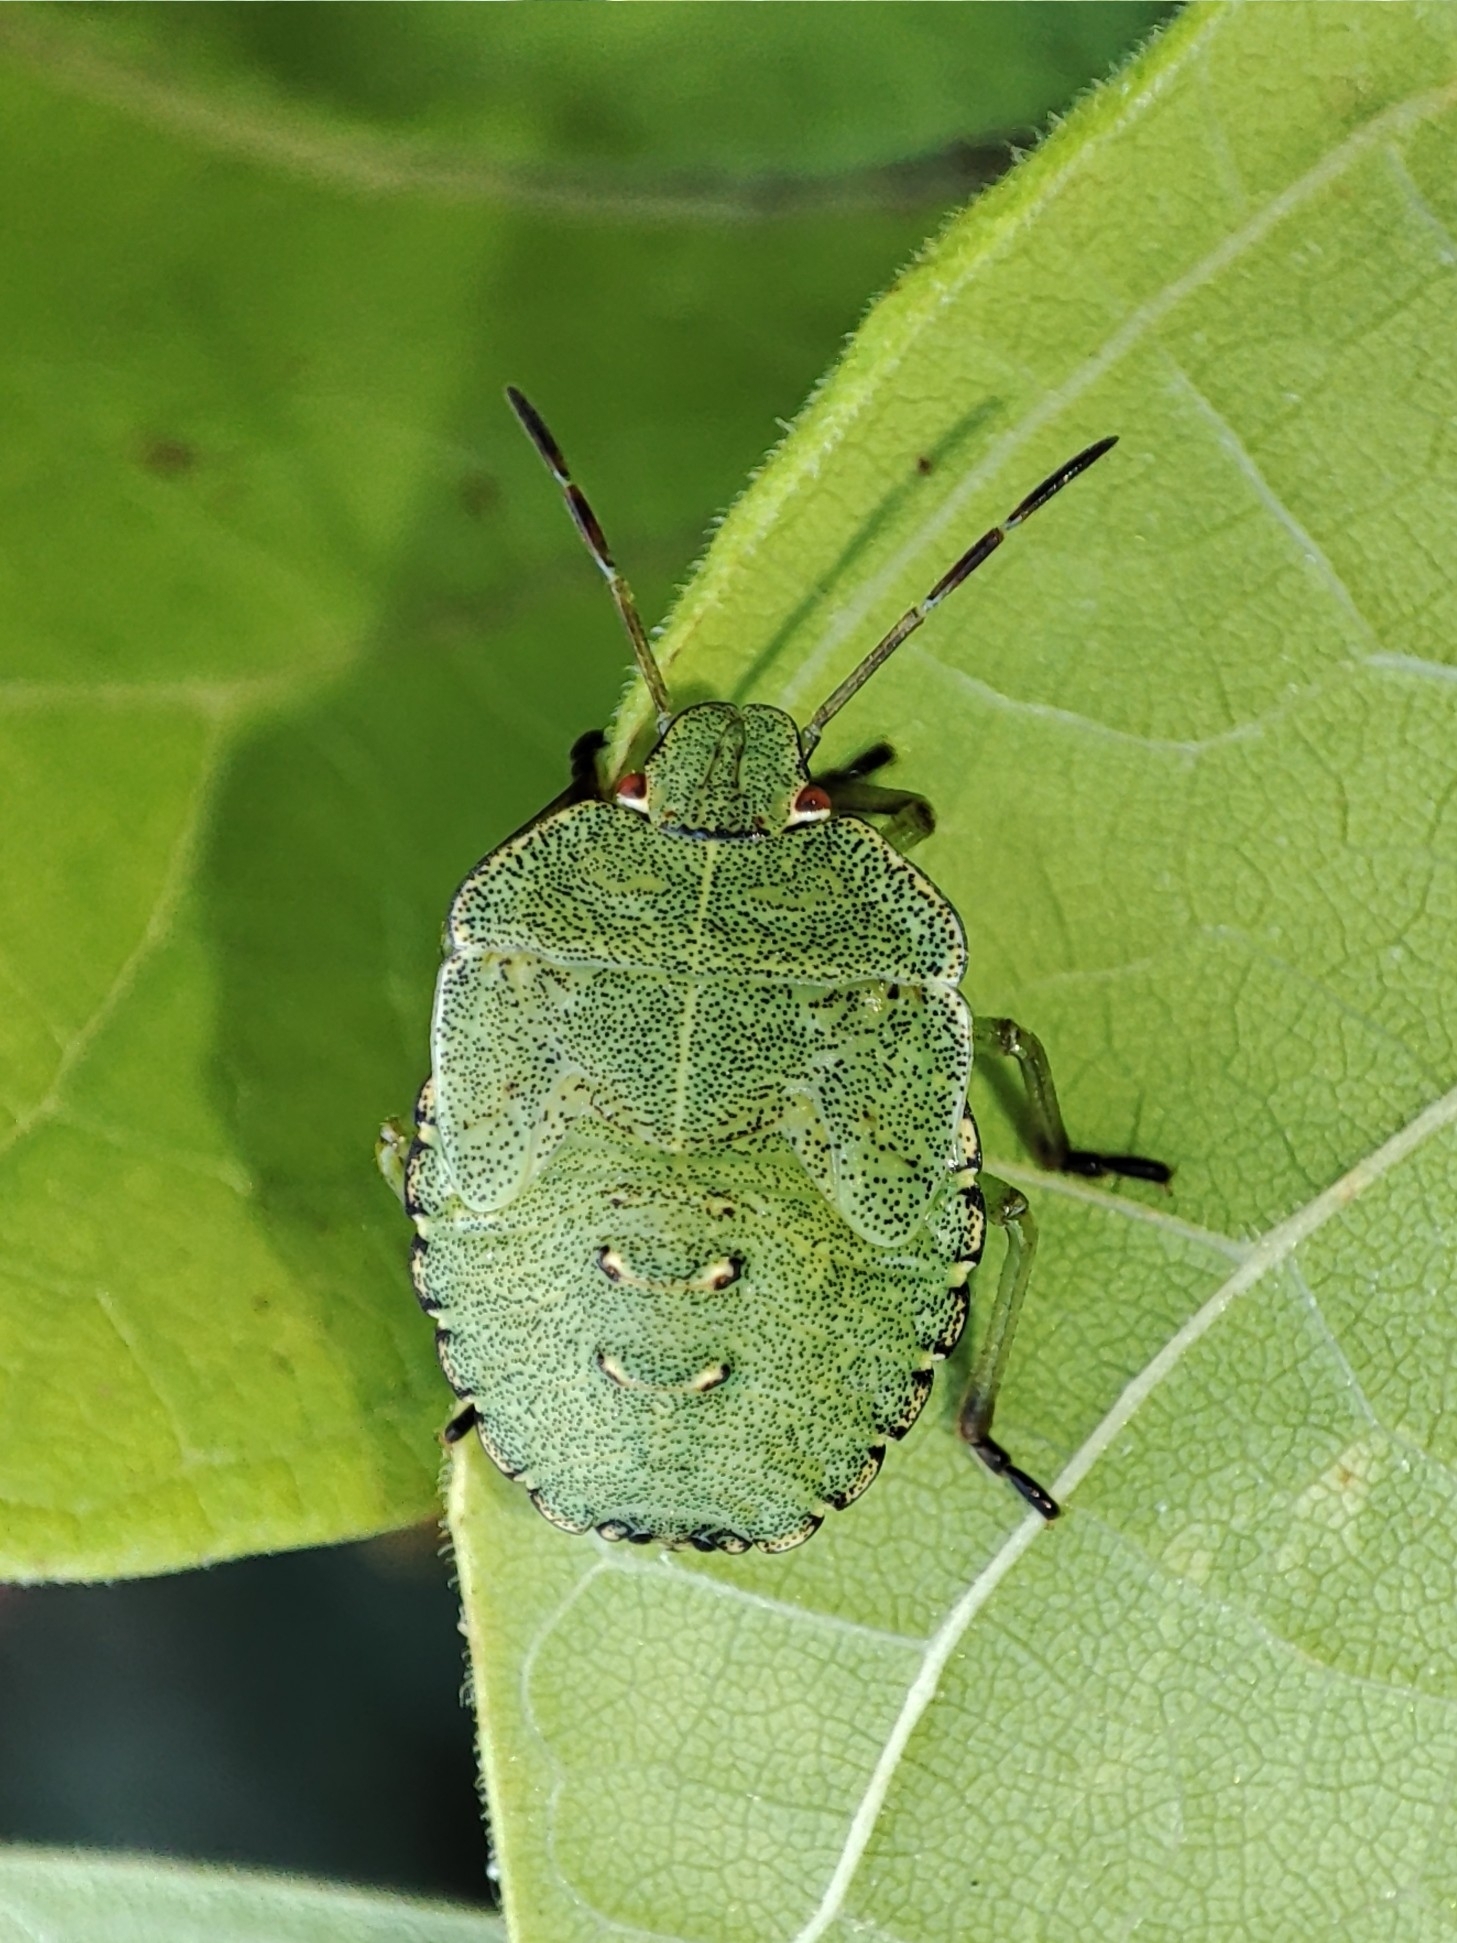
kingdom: Animalia
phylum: Arthropoda
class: Insecta
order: Hemiptera
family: Pentatomidae
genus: Palomena
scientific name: Palomena prasina
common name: Green shieldbug
